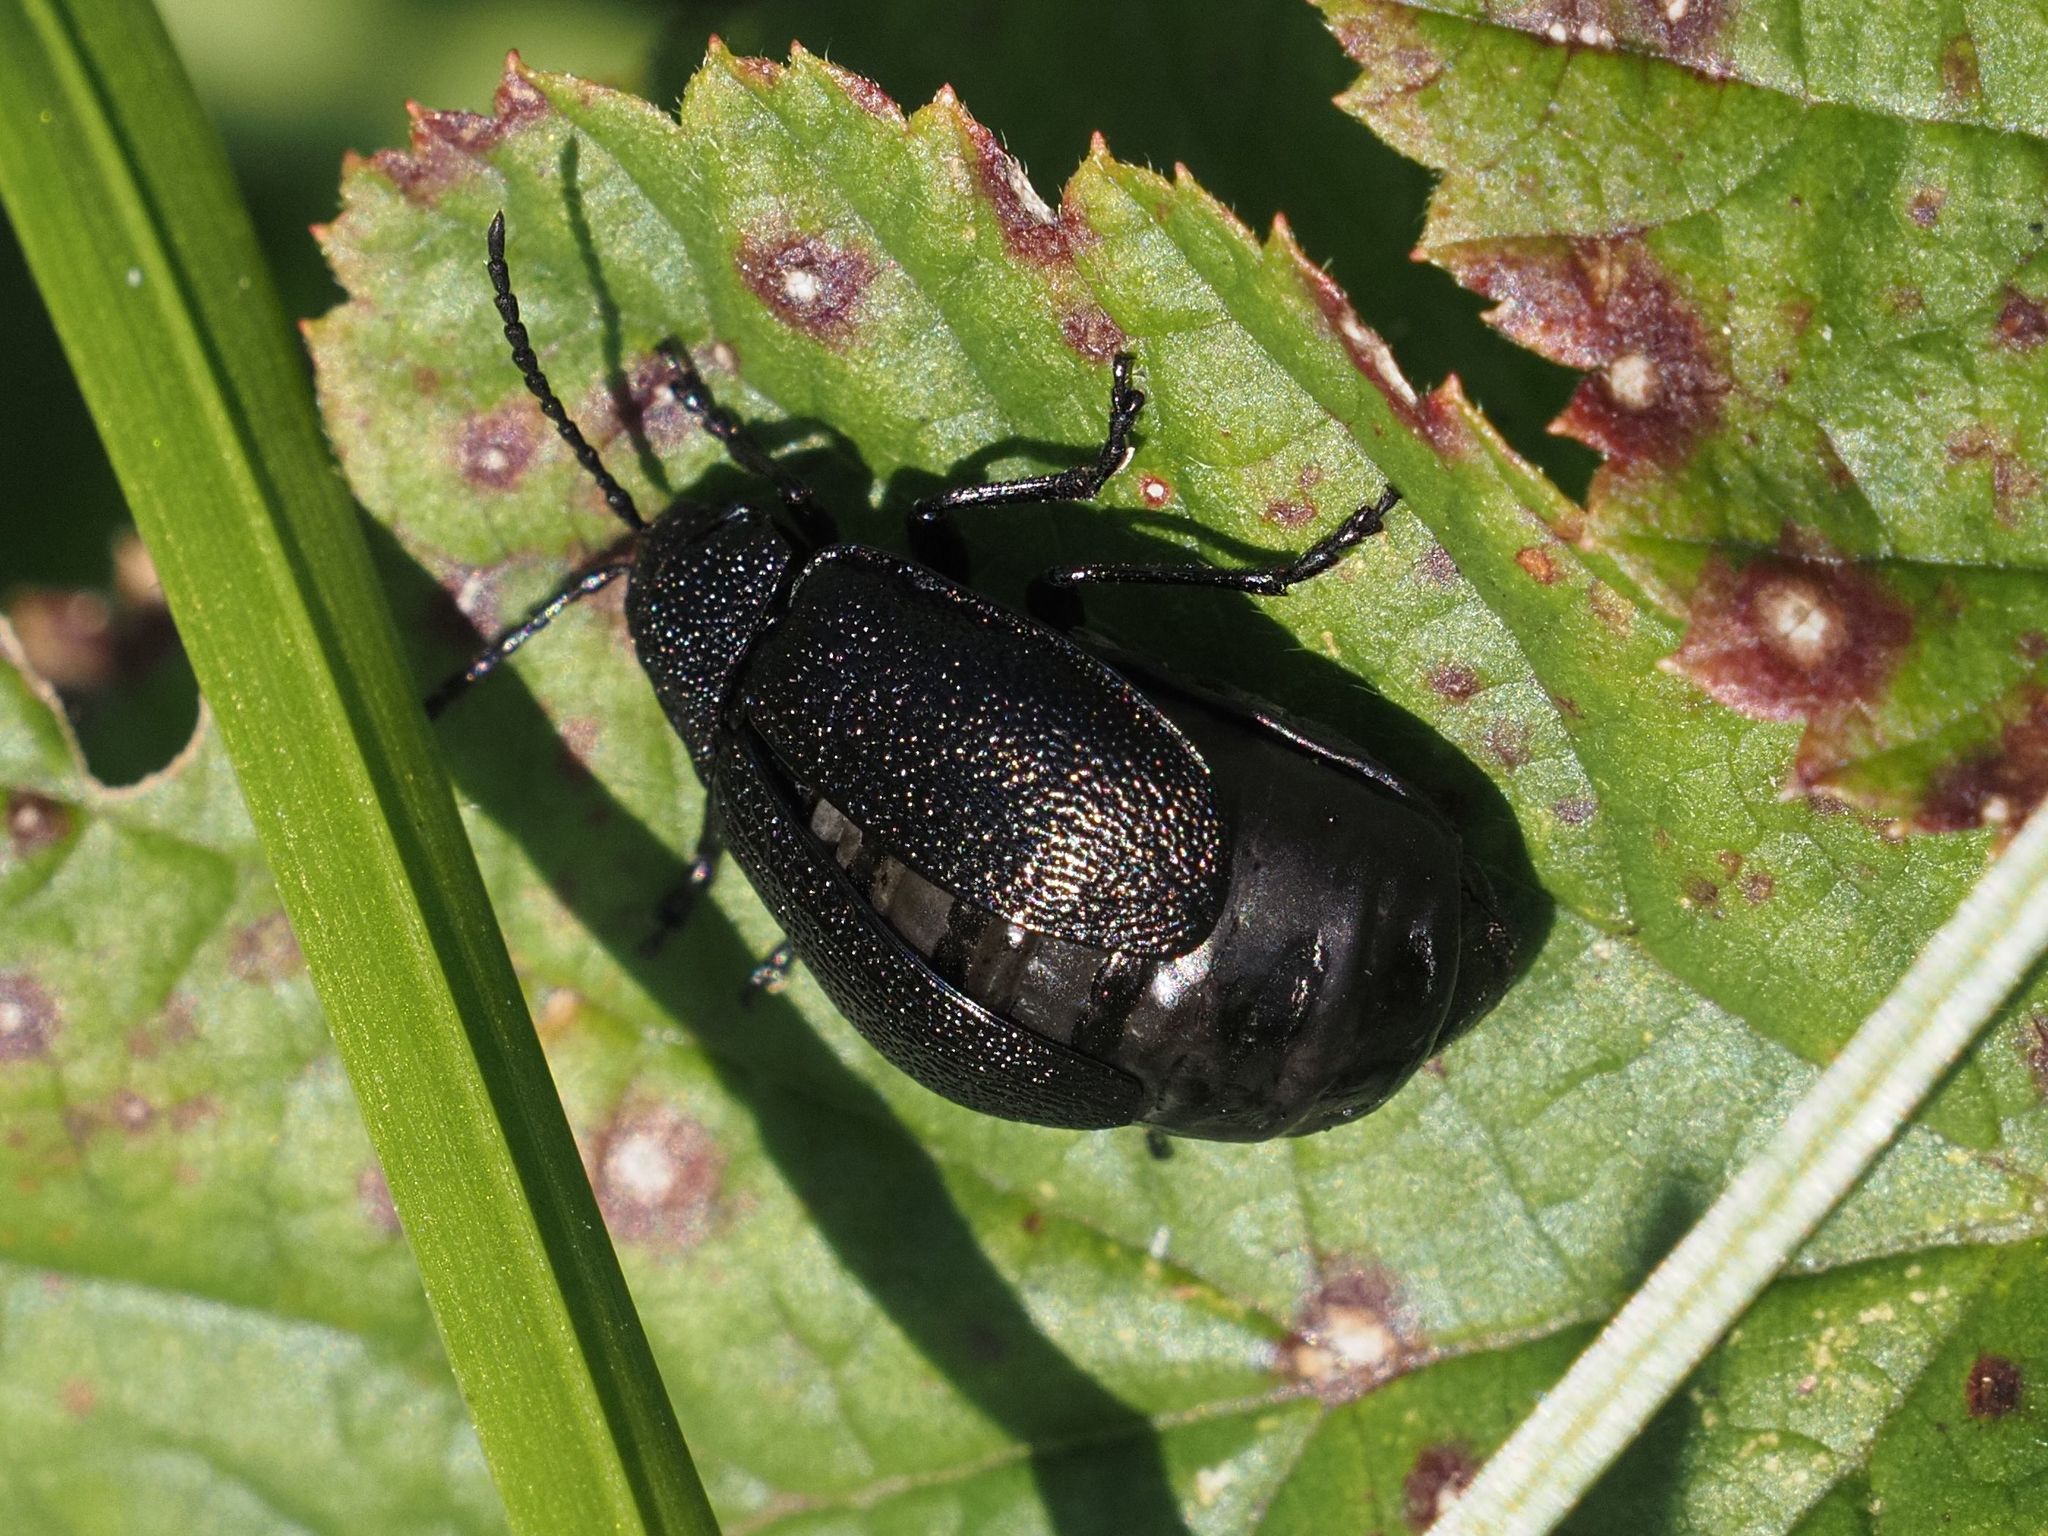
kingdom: Animalia
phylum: Arthropoda
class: Insecta
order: Coleoptera
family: Chrysomelidae
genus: Galeruca
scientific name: Galeruca tanaceti
